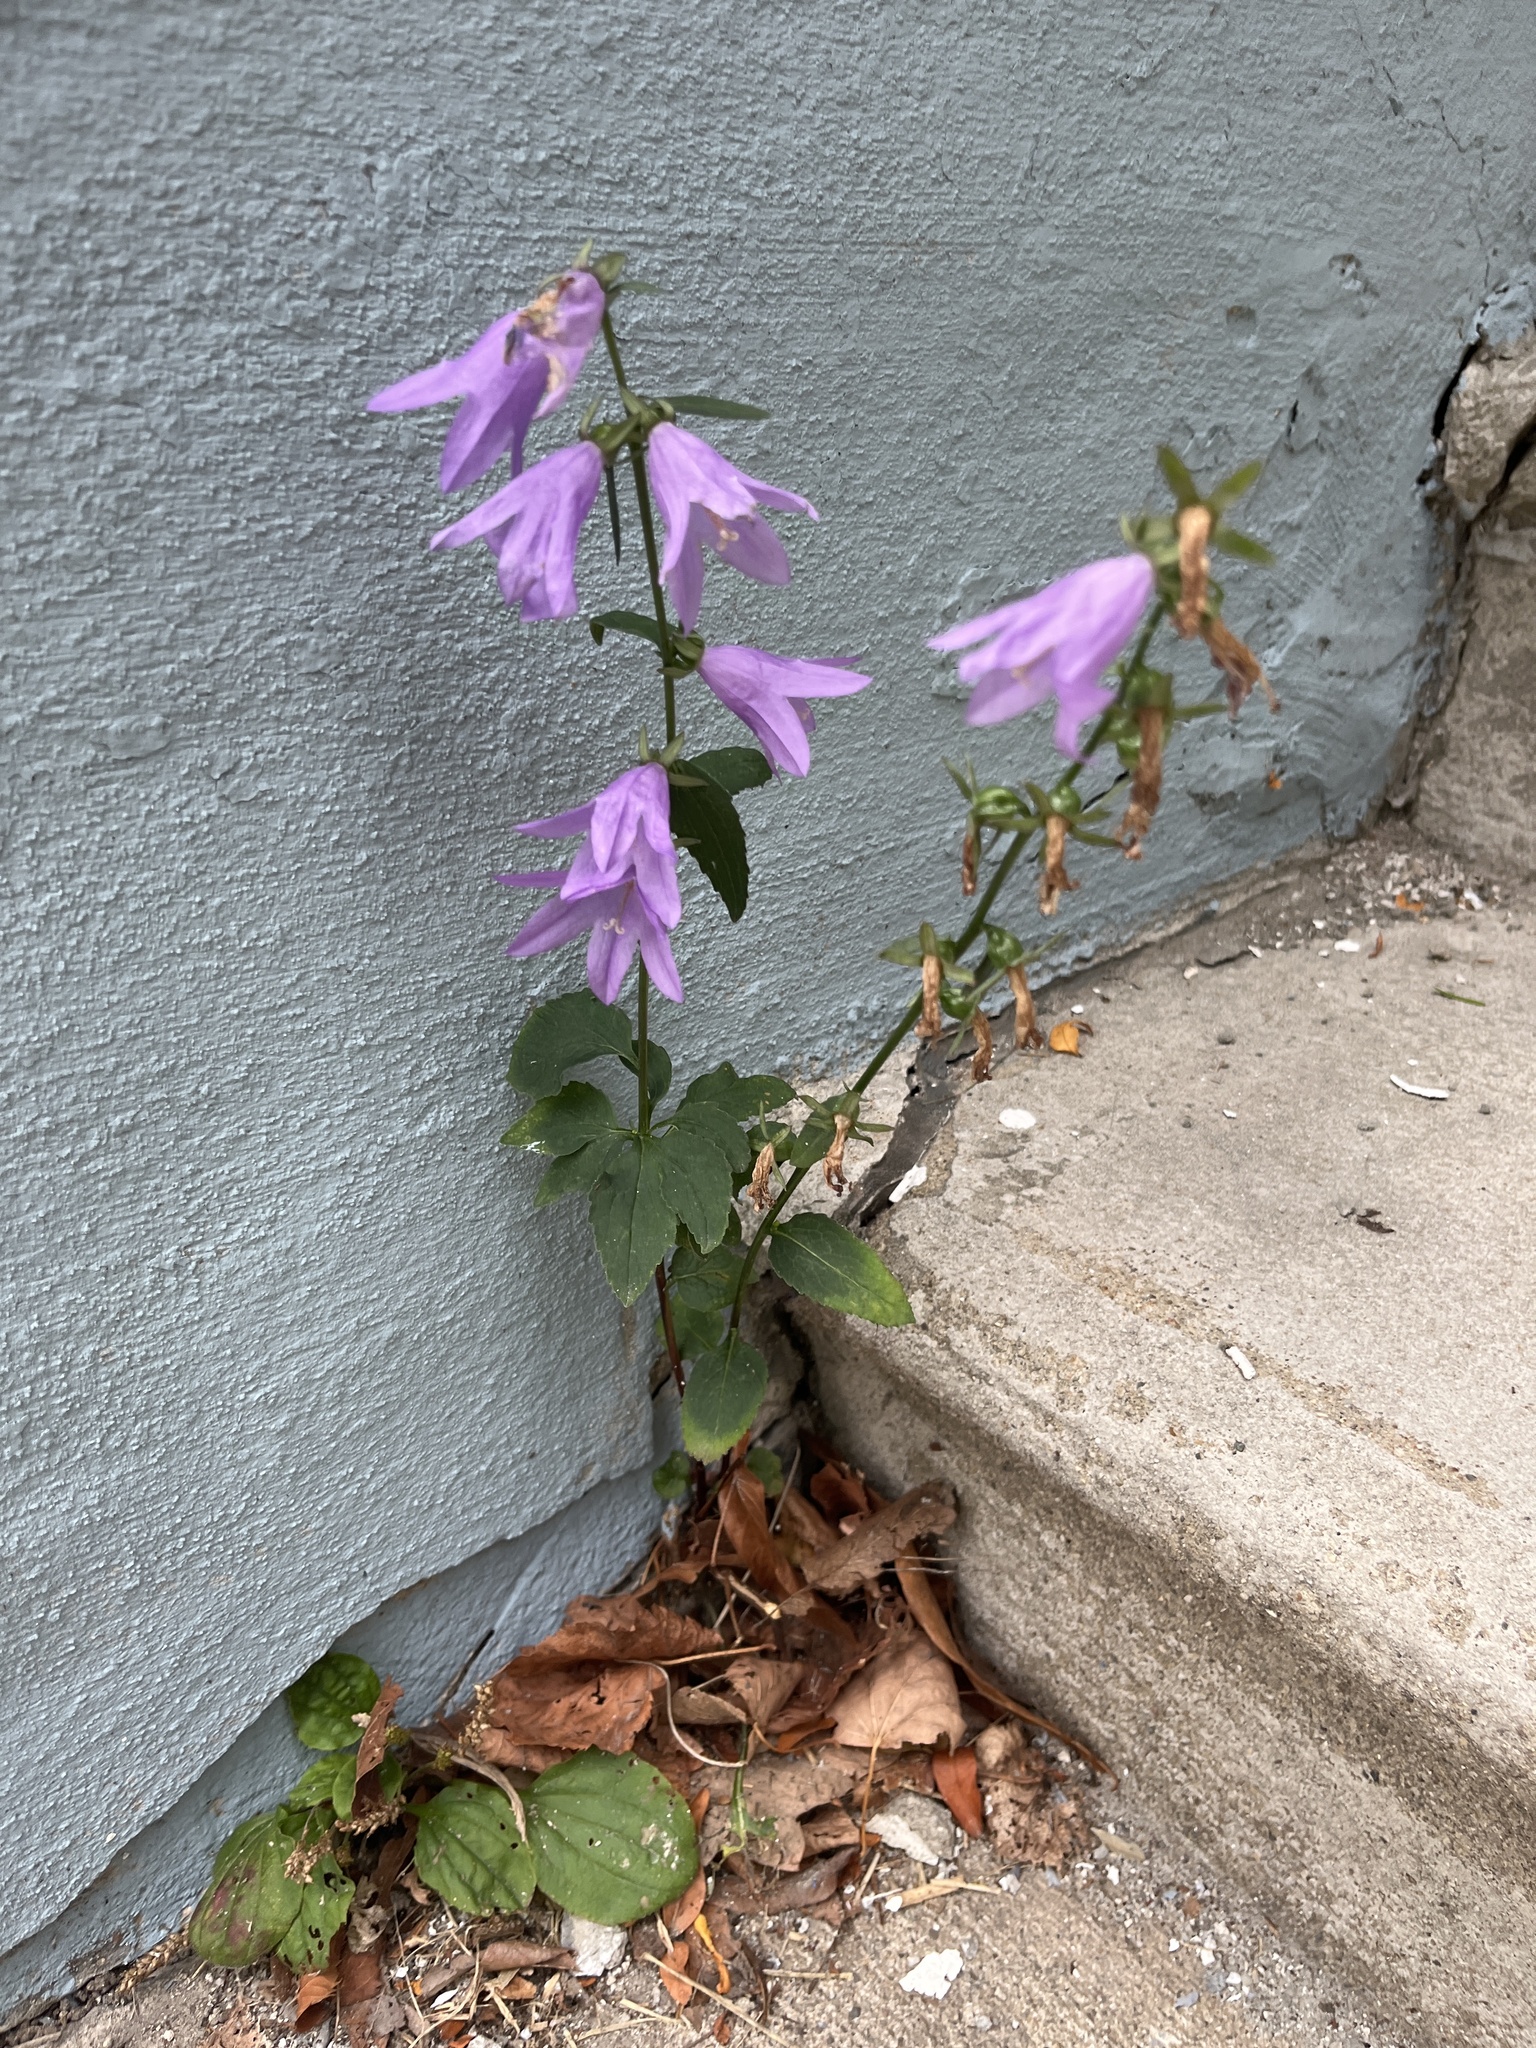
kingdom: Plantae
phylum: Tracheophyta
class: Magnoliopsida
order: Asterales
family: Campanulaceae
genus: Campanula
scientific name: Campanula rapunculoides
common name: Creeping bellflower
